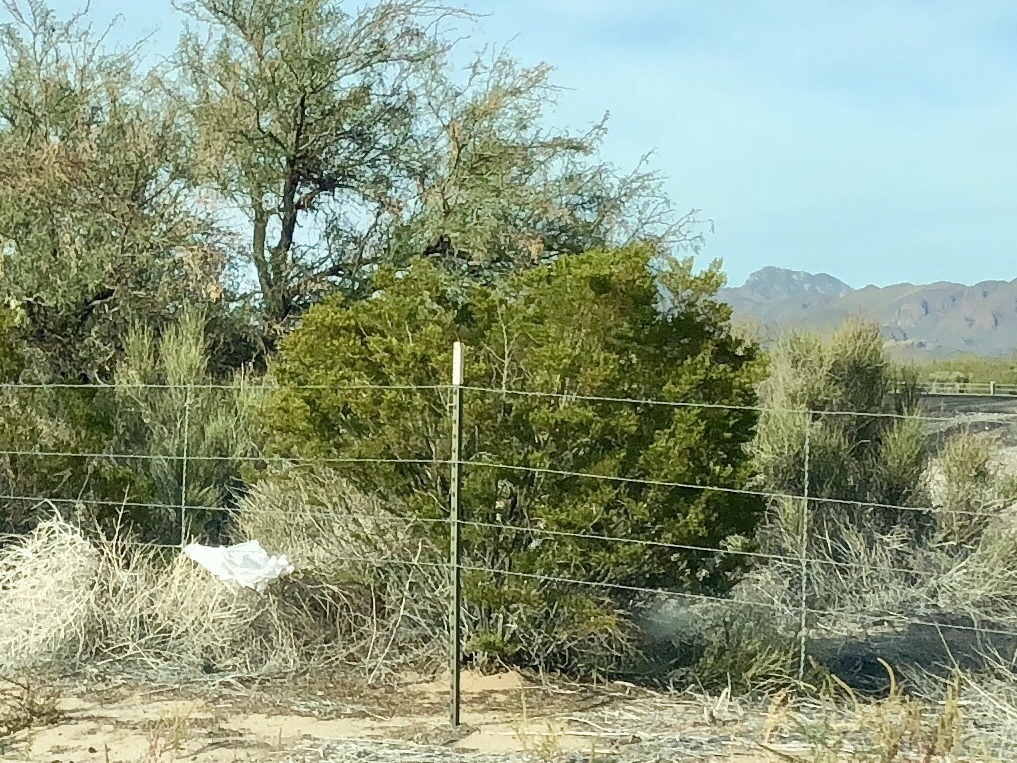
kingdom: Plantae
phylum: Tracheophyta
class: Magnoliopsida
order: Zygophyllales
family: Zygophyllaceae
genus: Larrea
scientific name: Larrea tridentata
